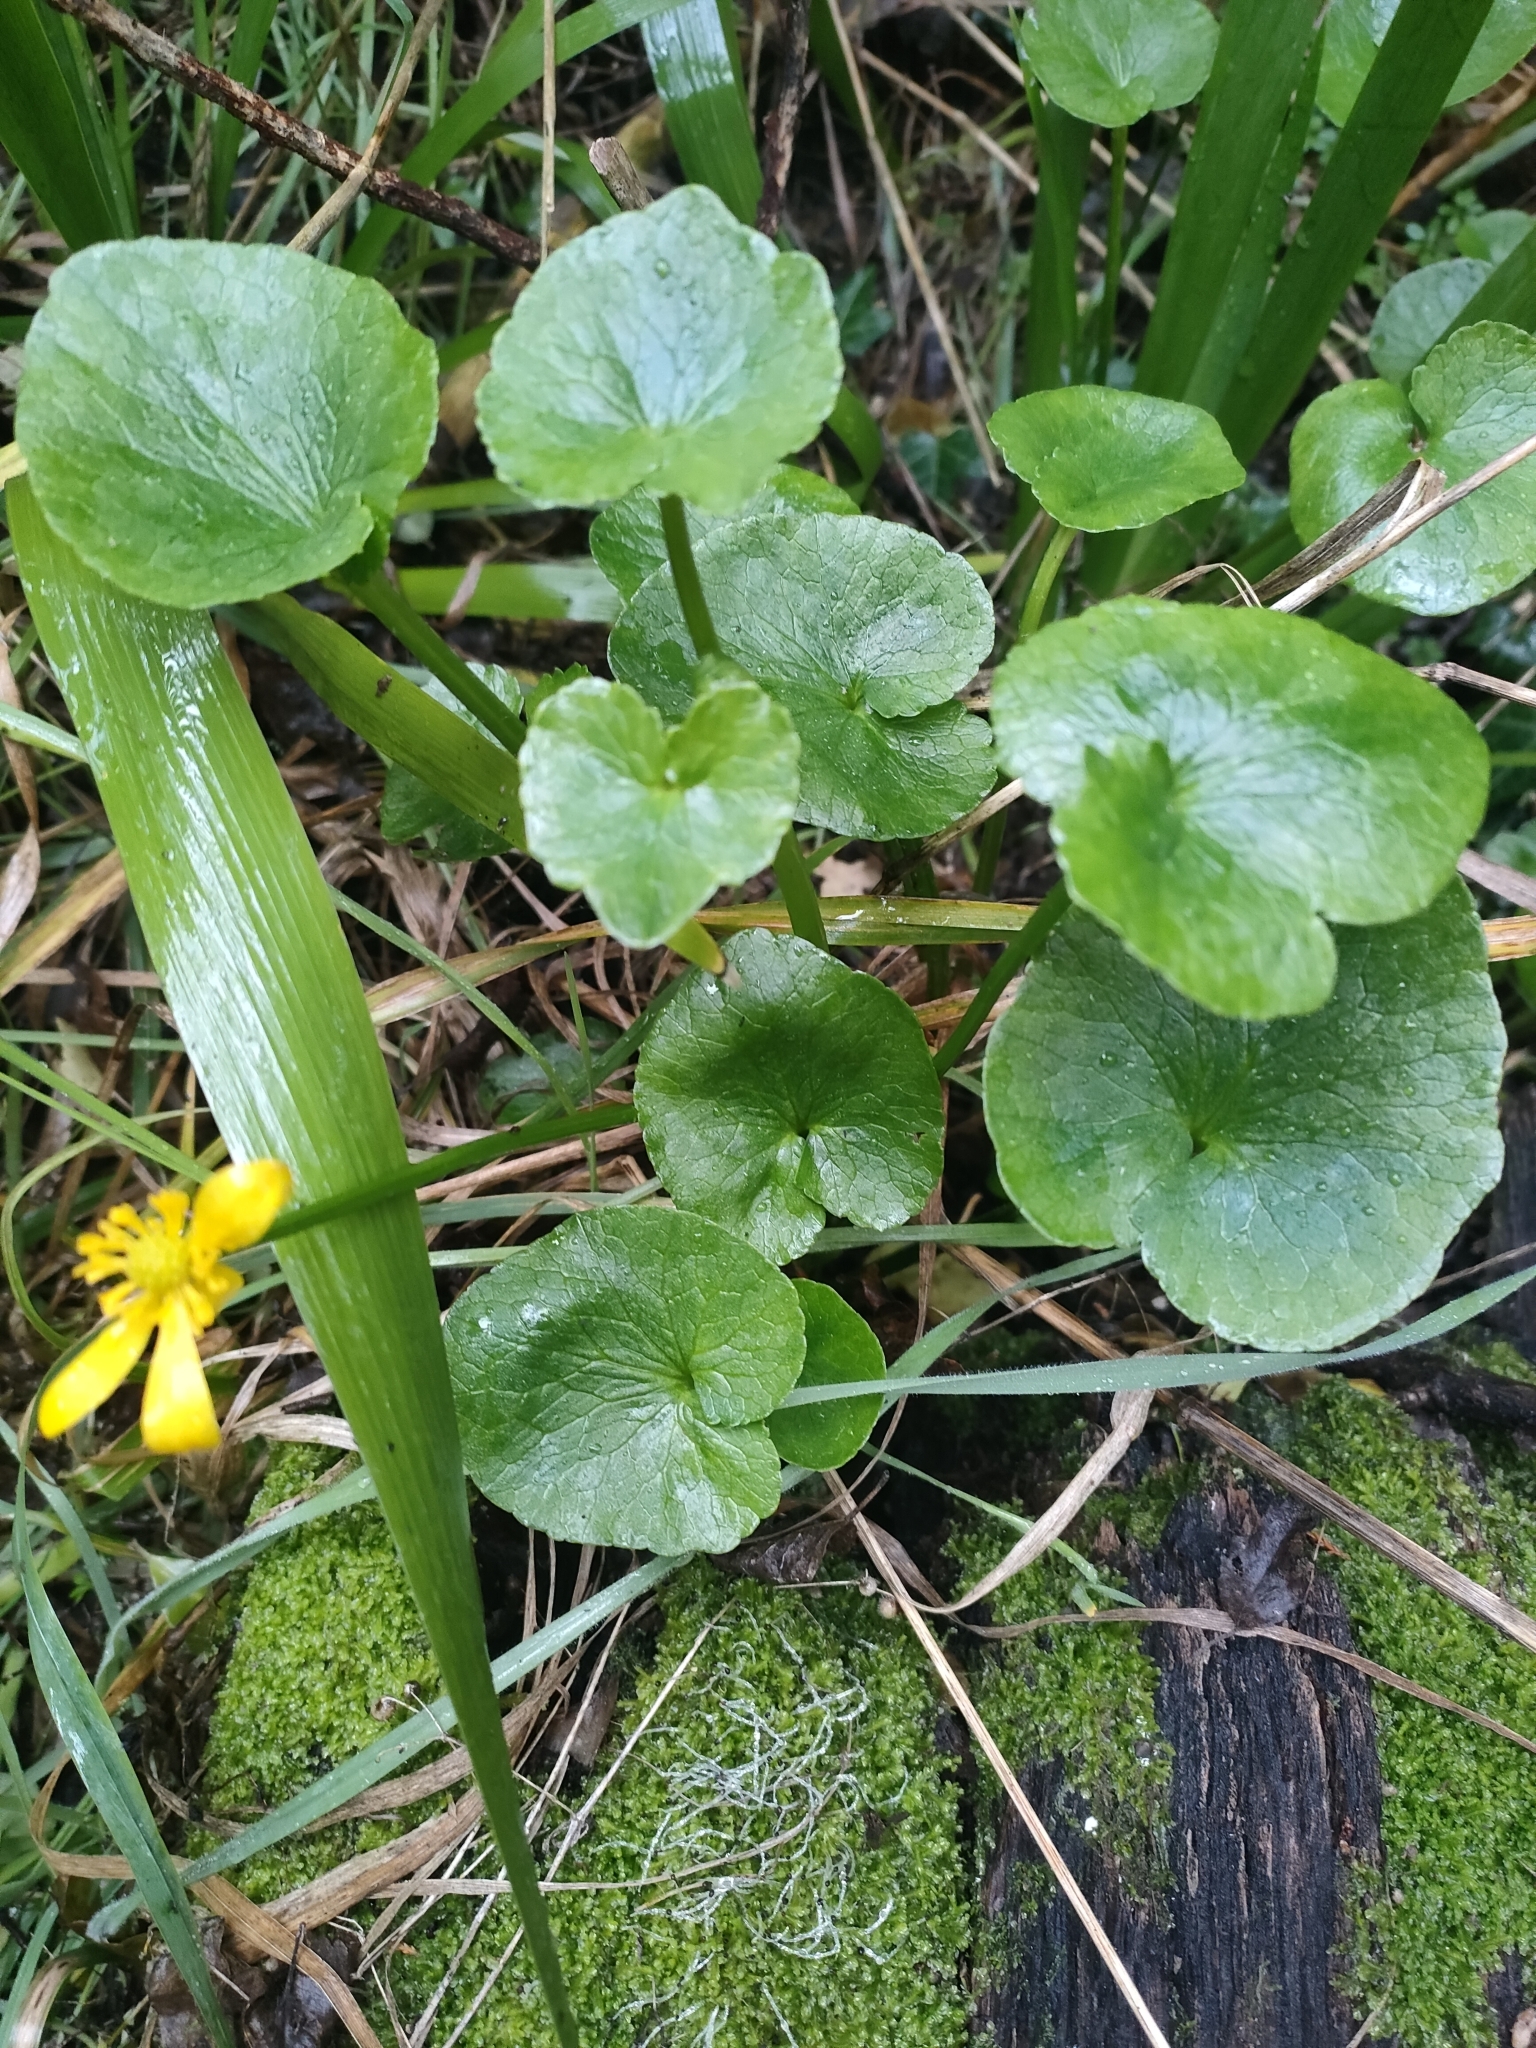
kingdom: Plantae
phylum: Tracheophyta
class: Magnoliopsida
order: Ranunculales
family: Ranunculaceae
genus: Ficaria
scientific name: Ficaria verna
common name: Lesser celandine
